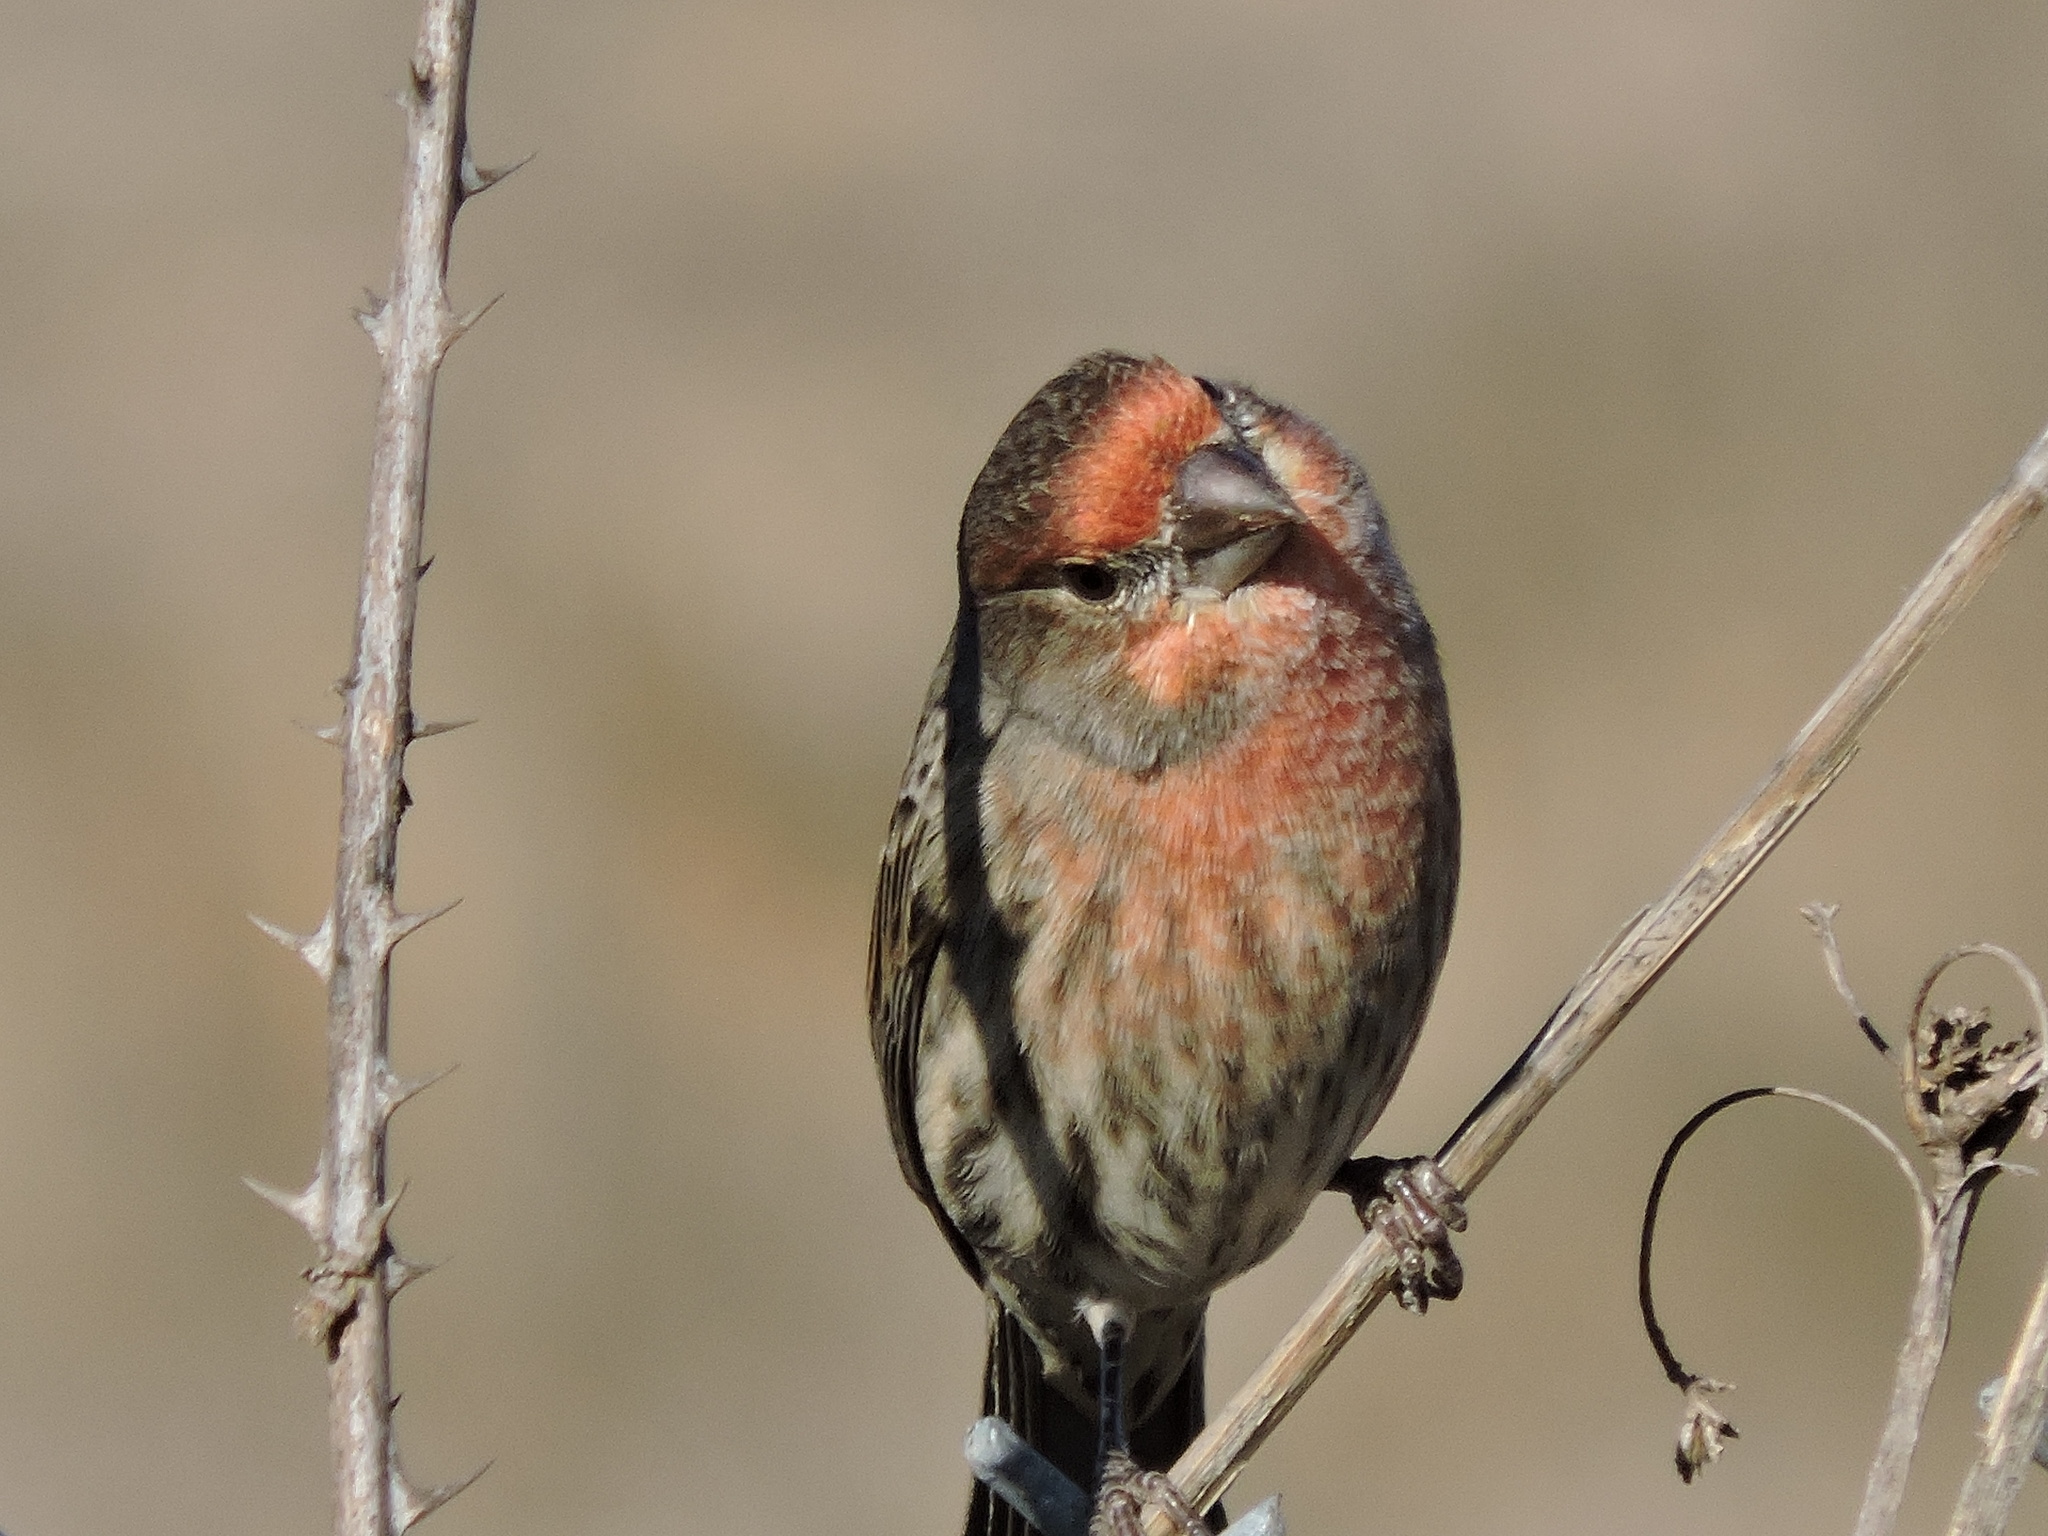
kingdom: Animalia
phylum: Chordata
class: Aves
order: Passeriformes
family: Fringillidae
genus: Haemorhous
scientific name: Haemorhous mexicanus
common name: House finch
